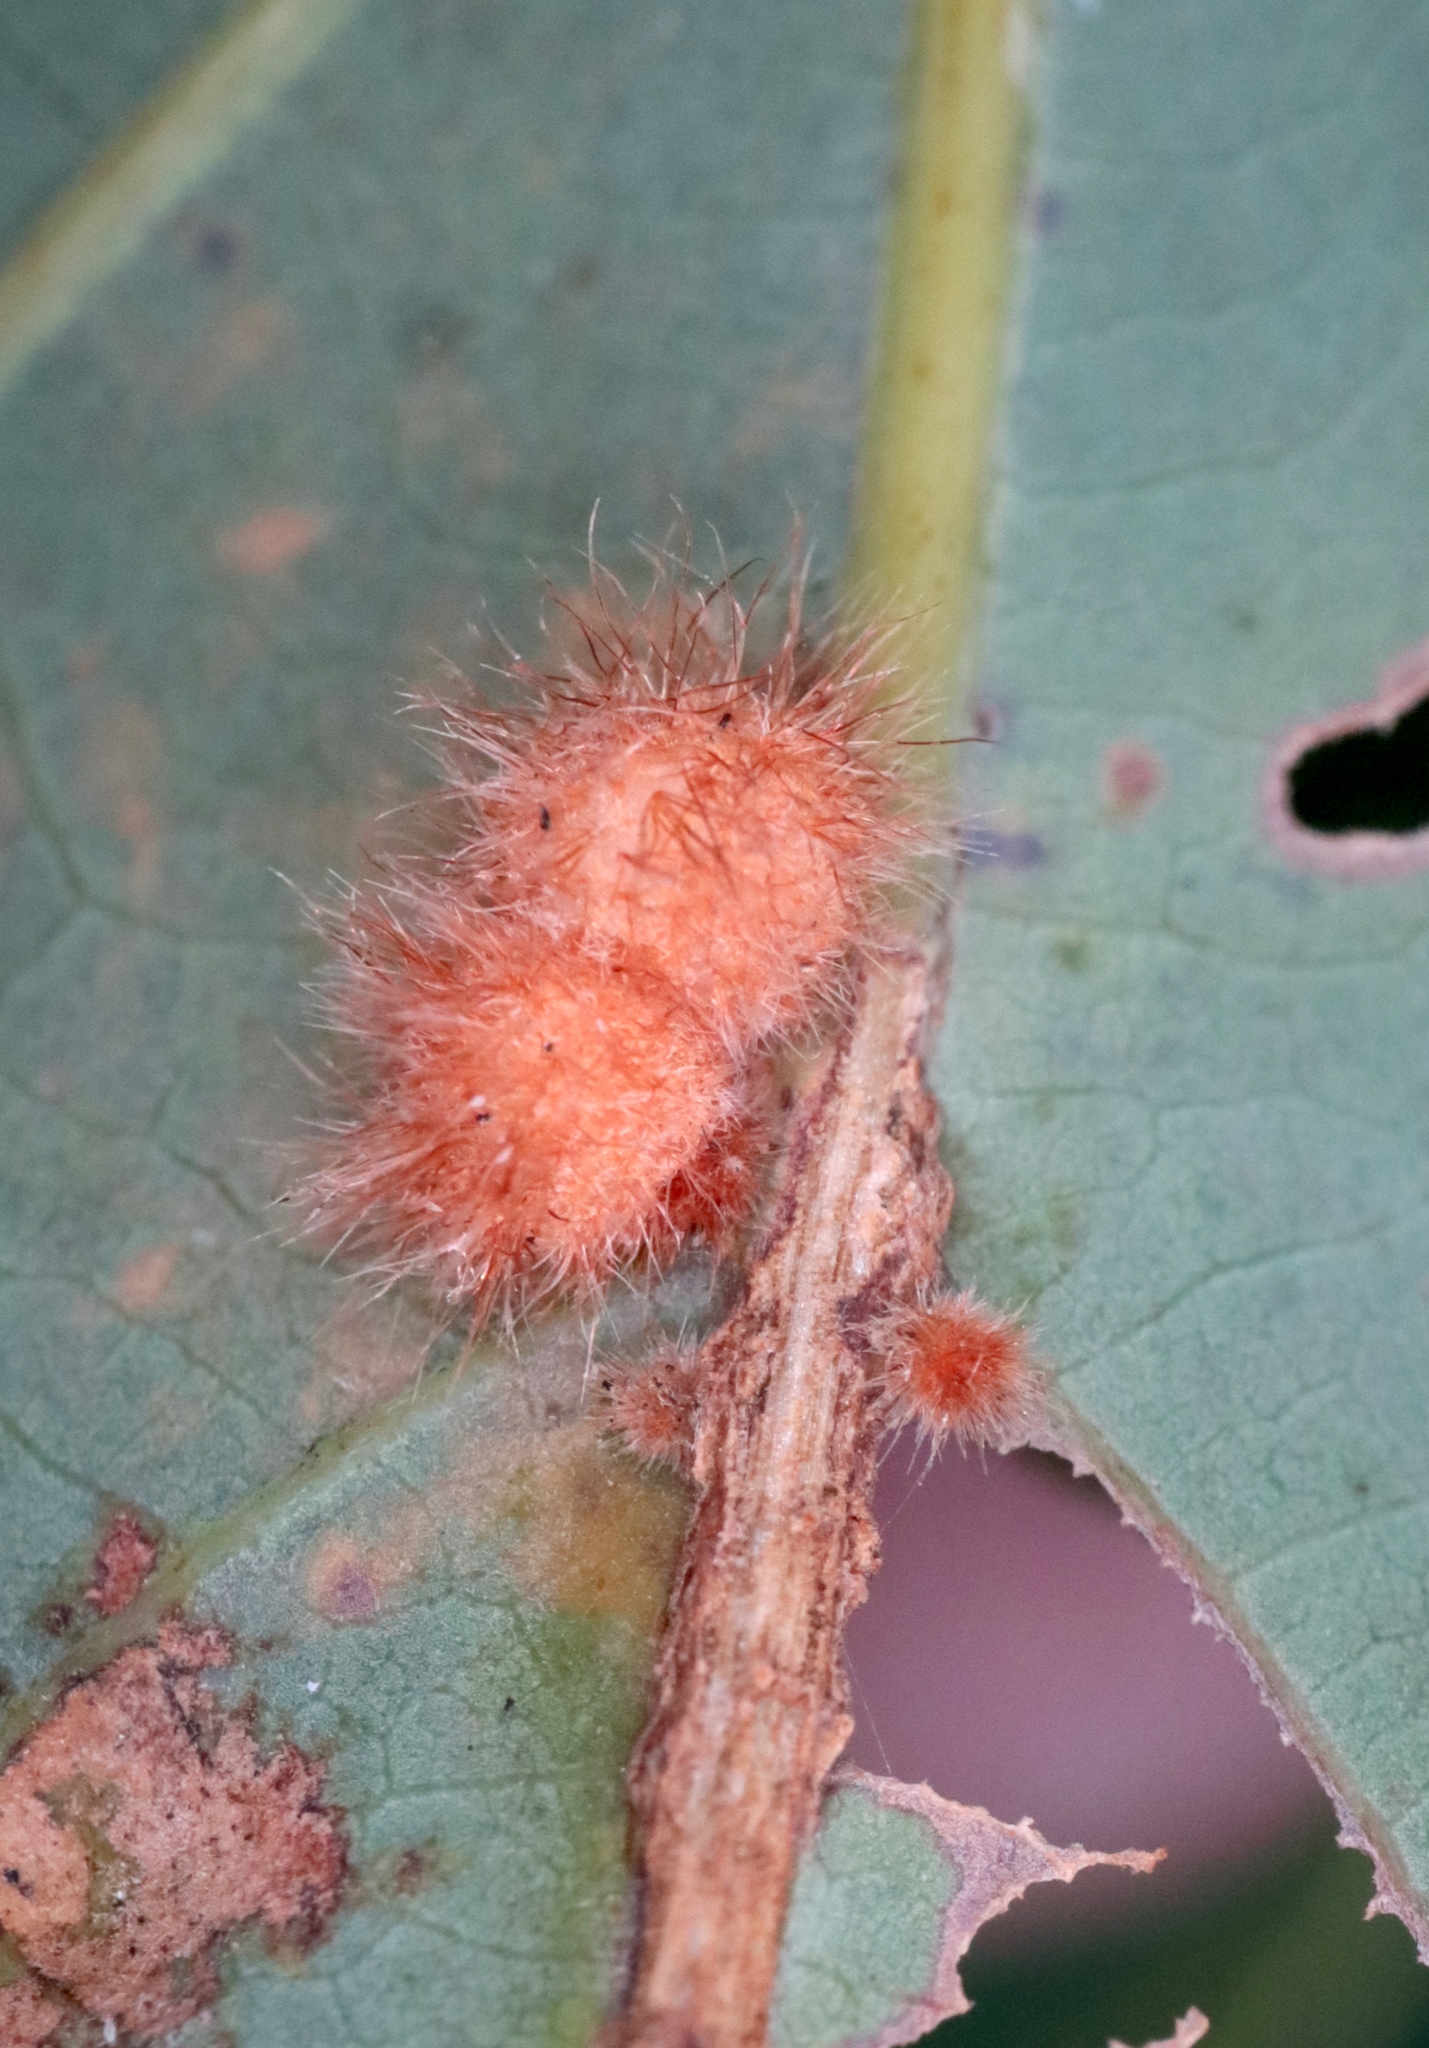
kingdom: Animalia
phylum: Arthropoda
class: Insecta
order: Hymenoptera
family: Cynipidae
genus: Andricus
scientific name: Andricus
